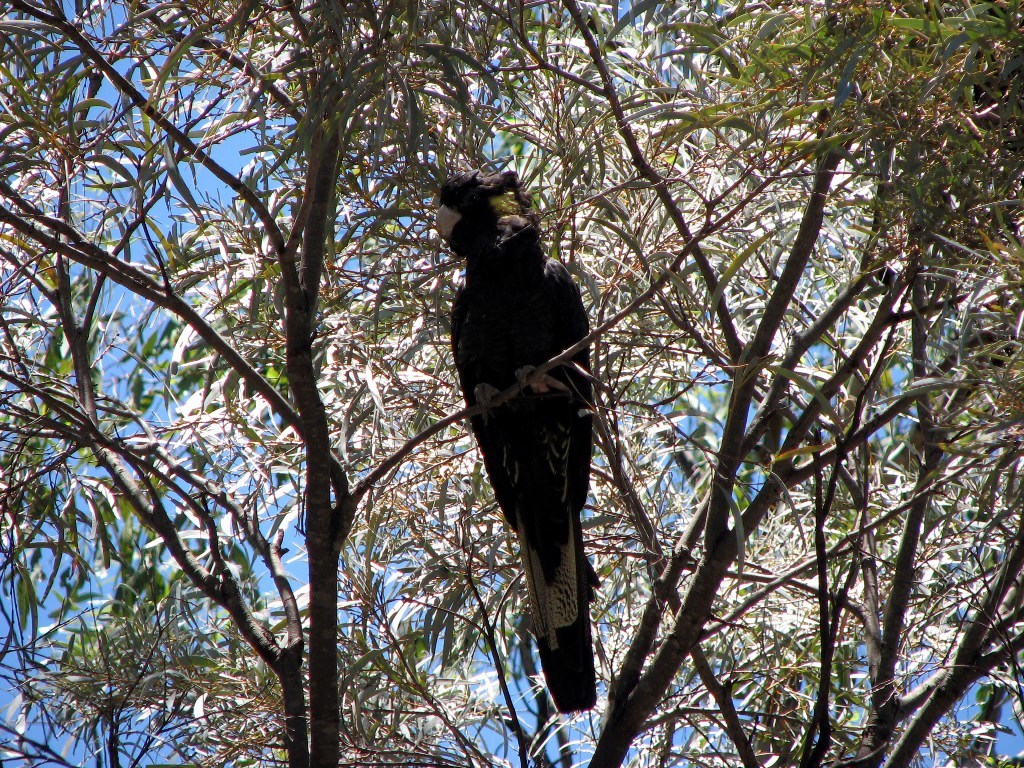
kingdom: Animalia
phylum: Chordata
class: Aves
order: Psittaciformes
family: Cacatuidae
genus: Zanda
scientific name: Zanda funerea
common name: Yellow-tailed black-cockatoo
